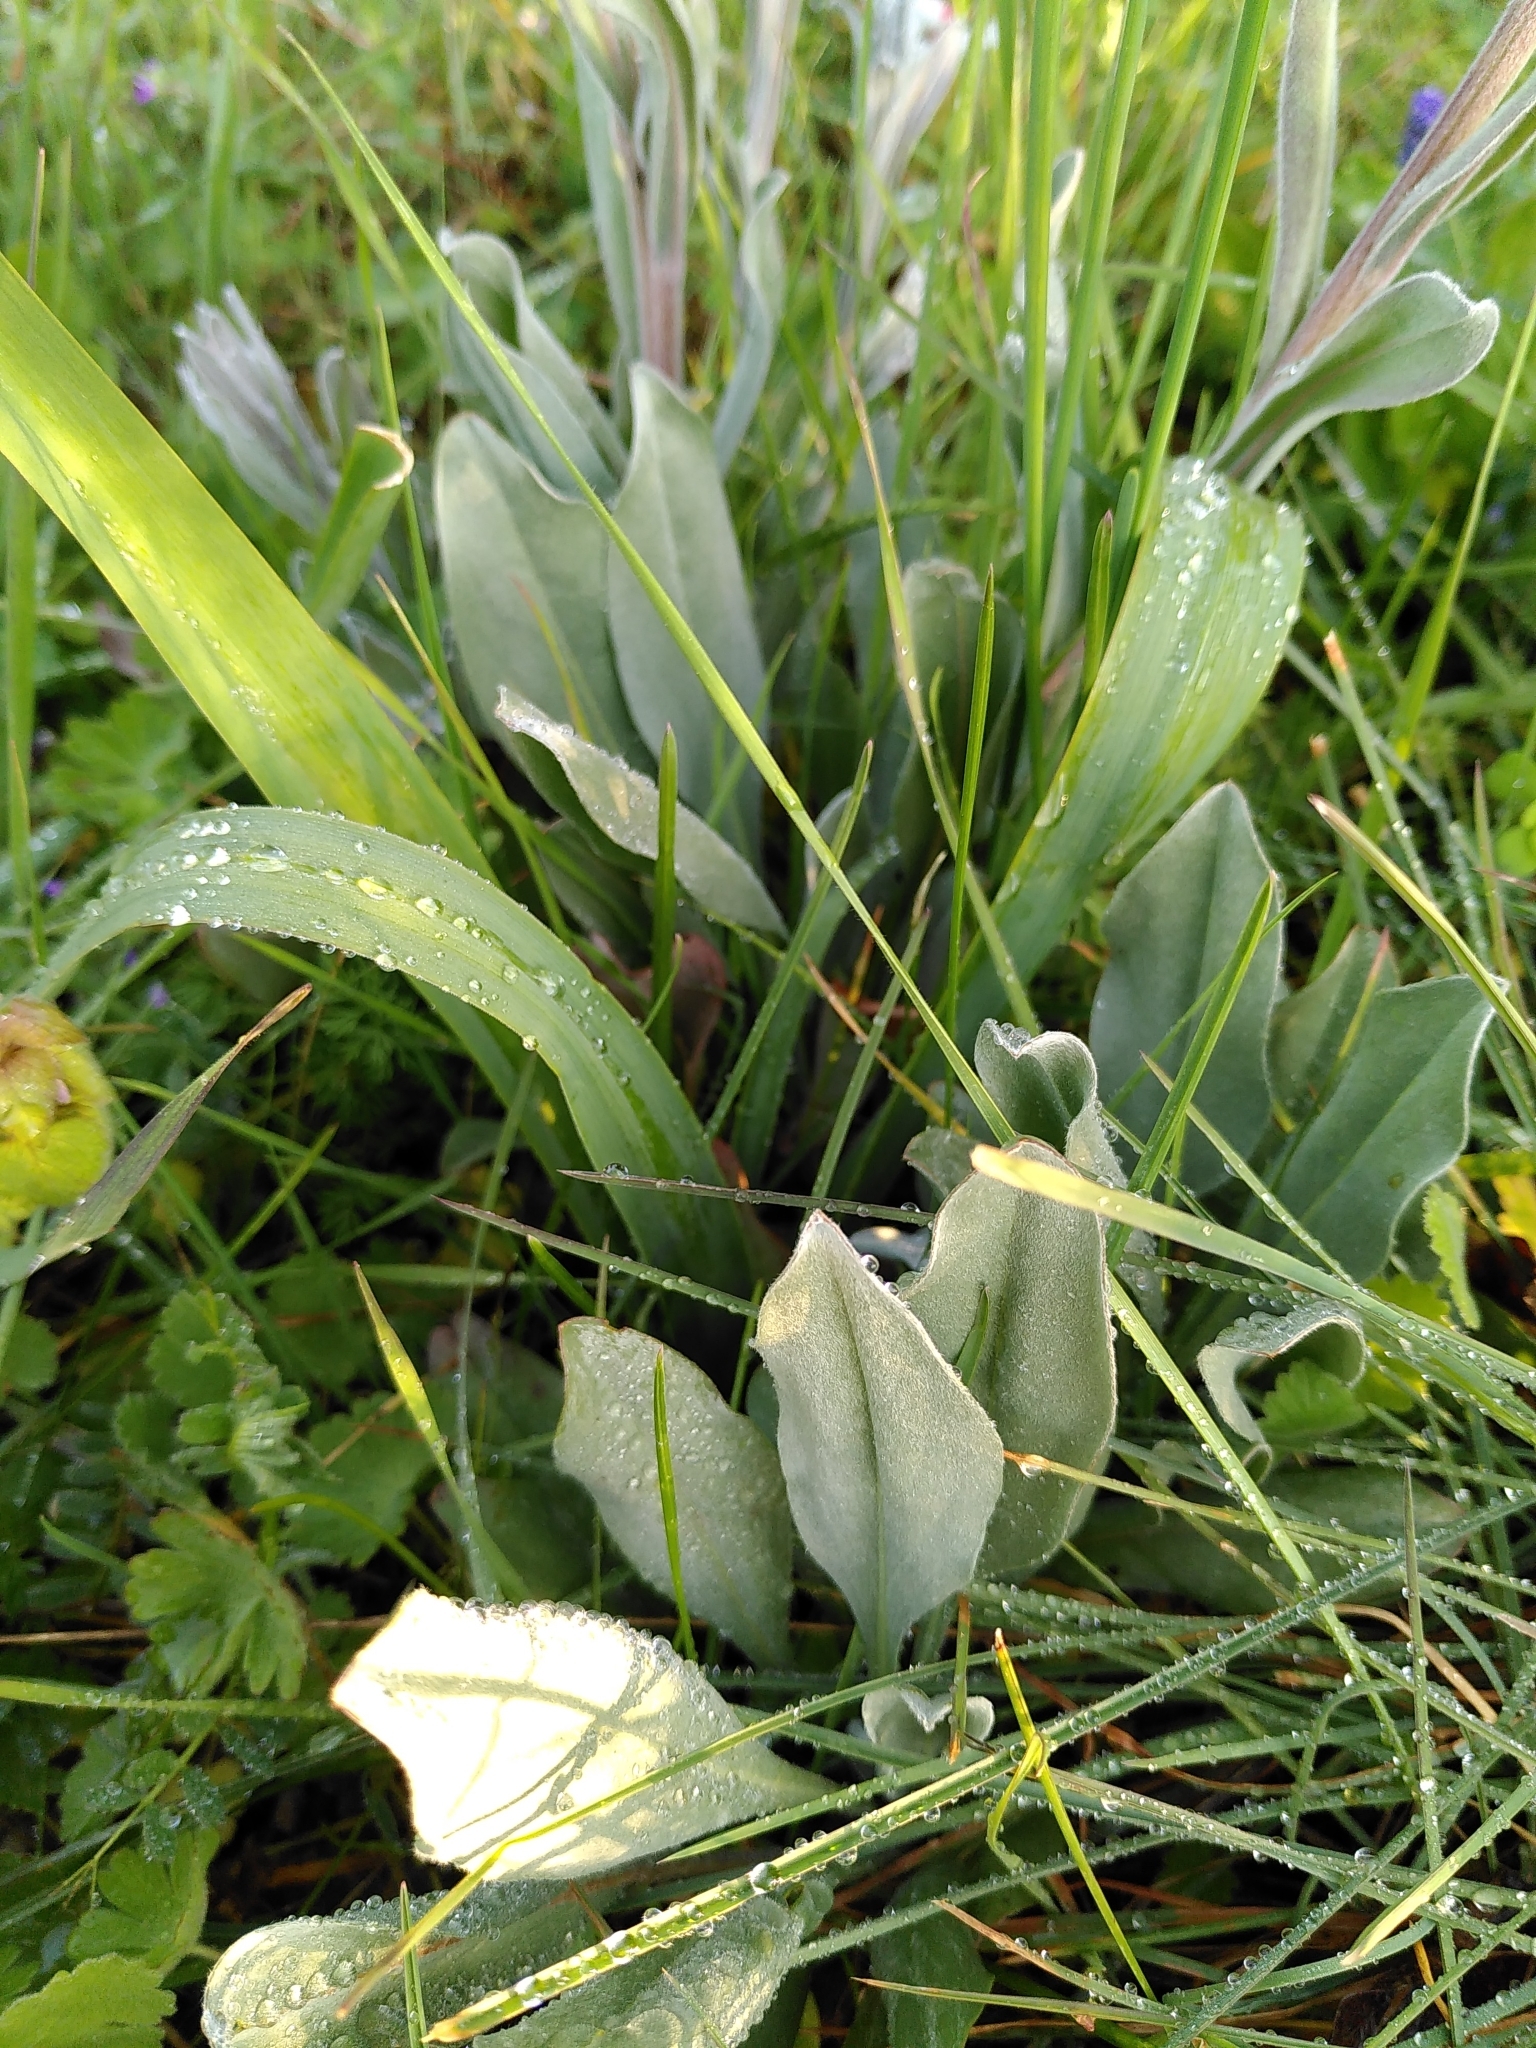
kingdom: Plantae
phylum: Tracheophyta
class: Magnoliopsida
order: Boraginales
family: Boraginaceae
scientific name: Boraginaceae
